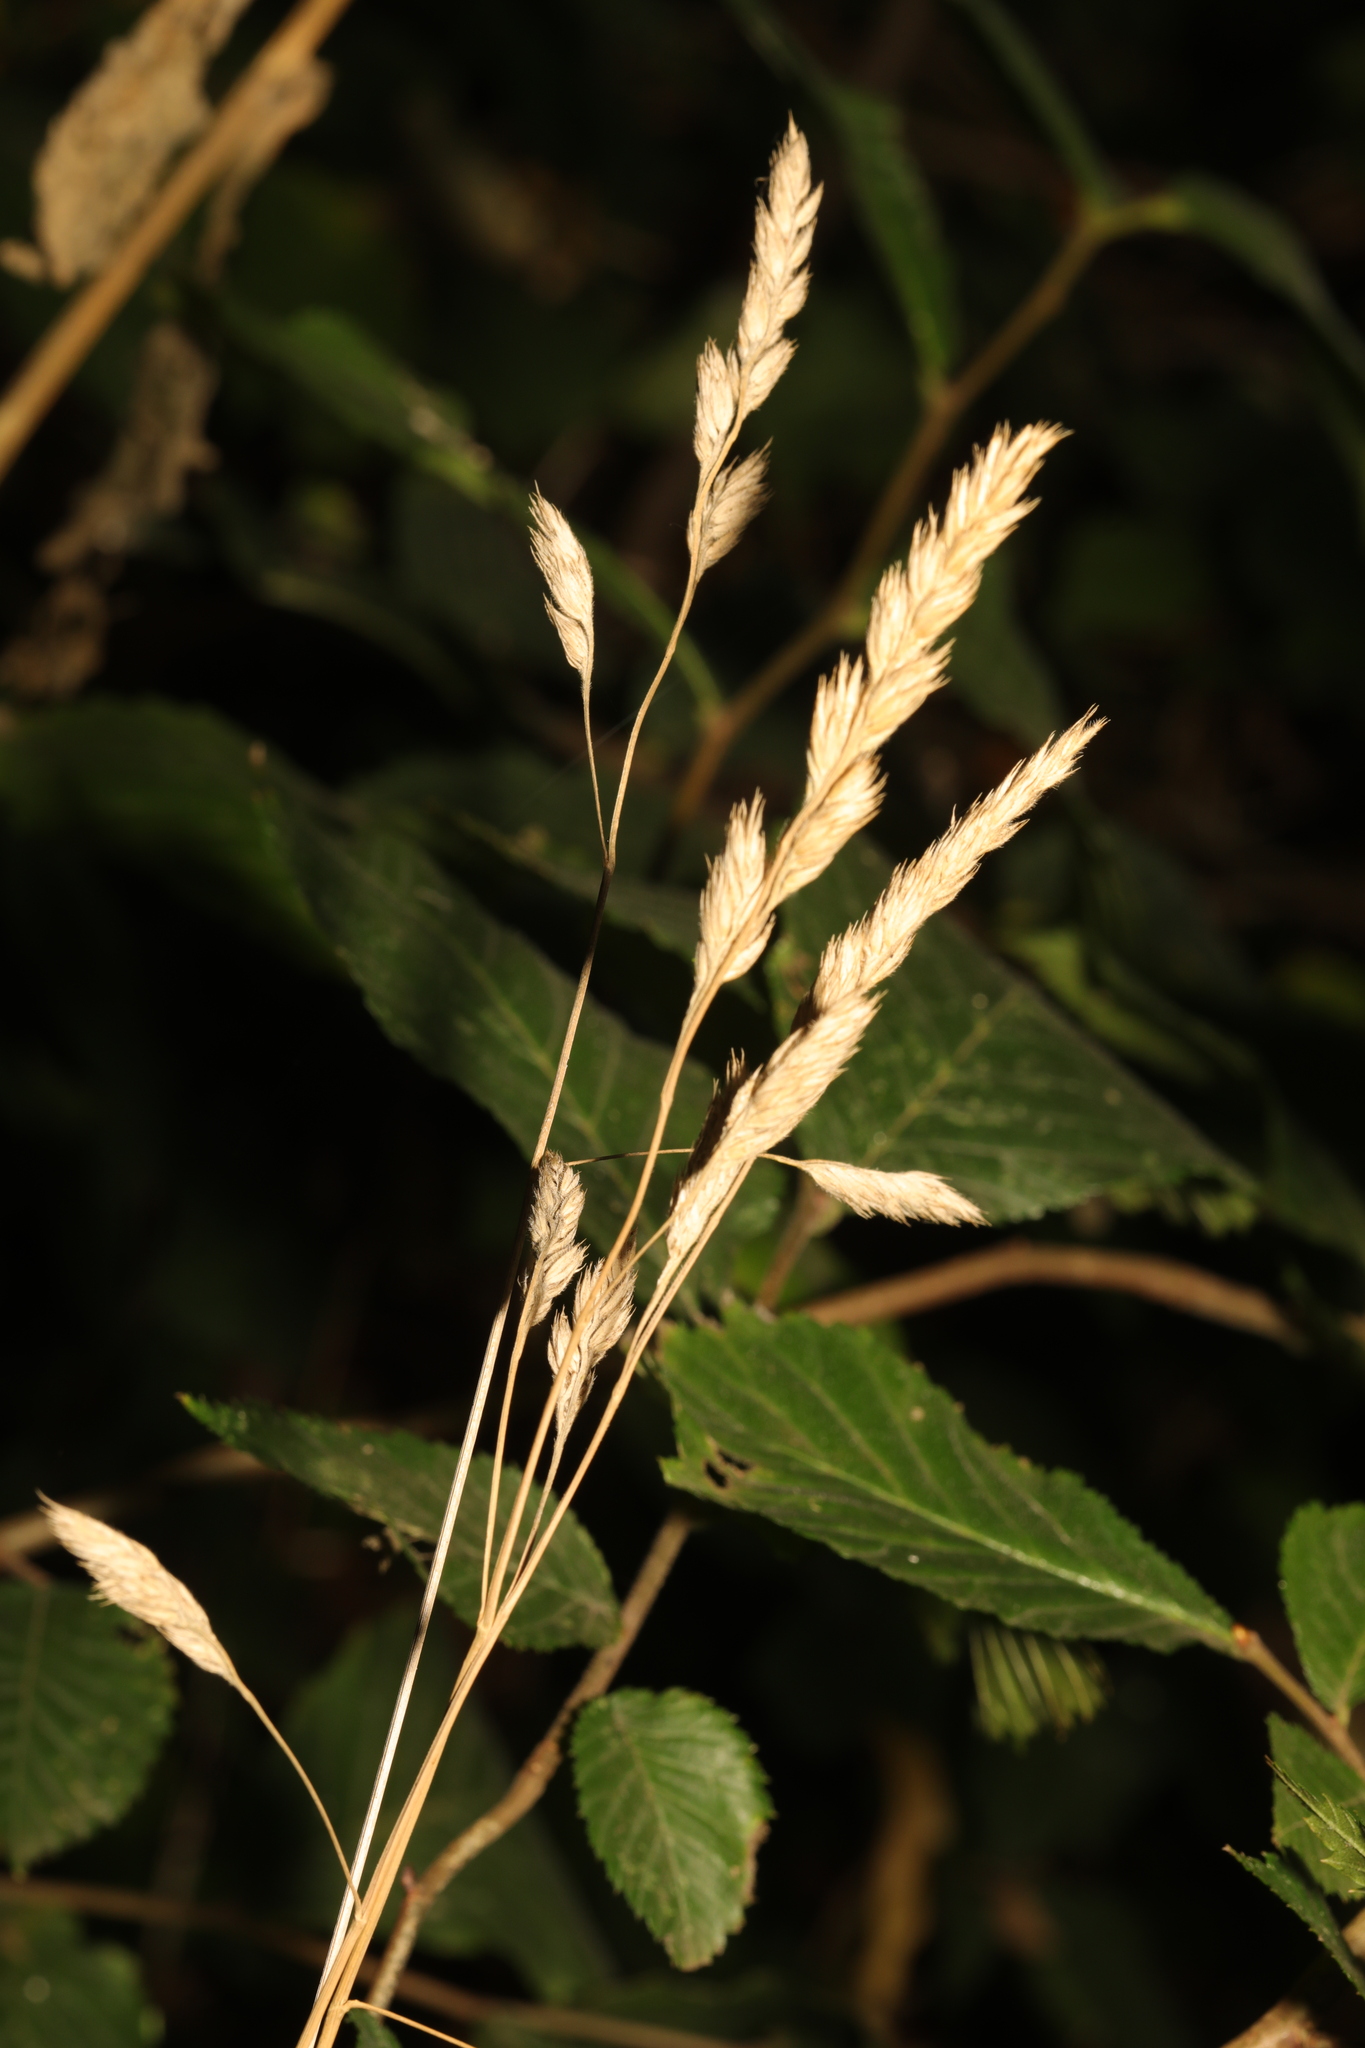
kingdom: Plantae
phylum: Tracheophyta
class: Liliopsida
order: Poales
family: Poaceae
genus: Dactylis
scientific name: Dactylis glomerata
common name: Orchardgrass
